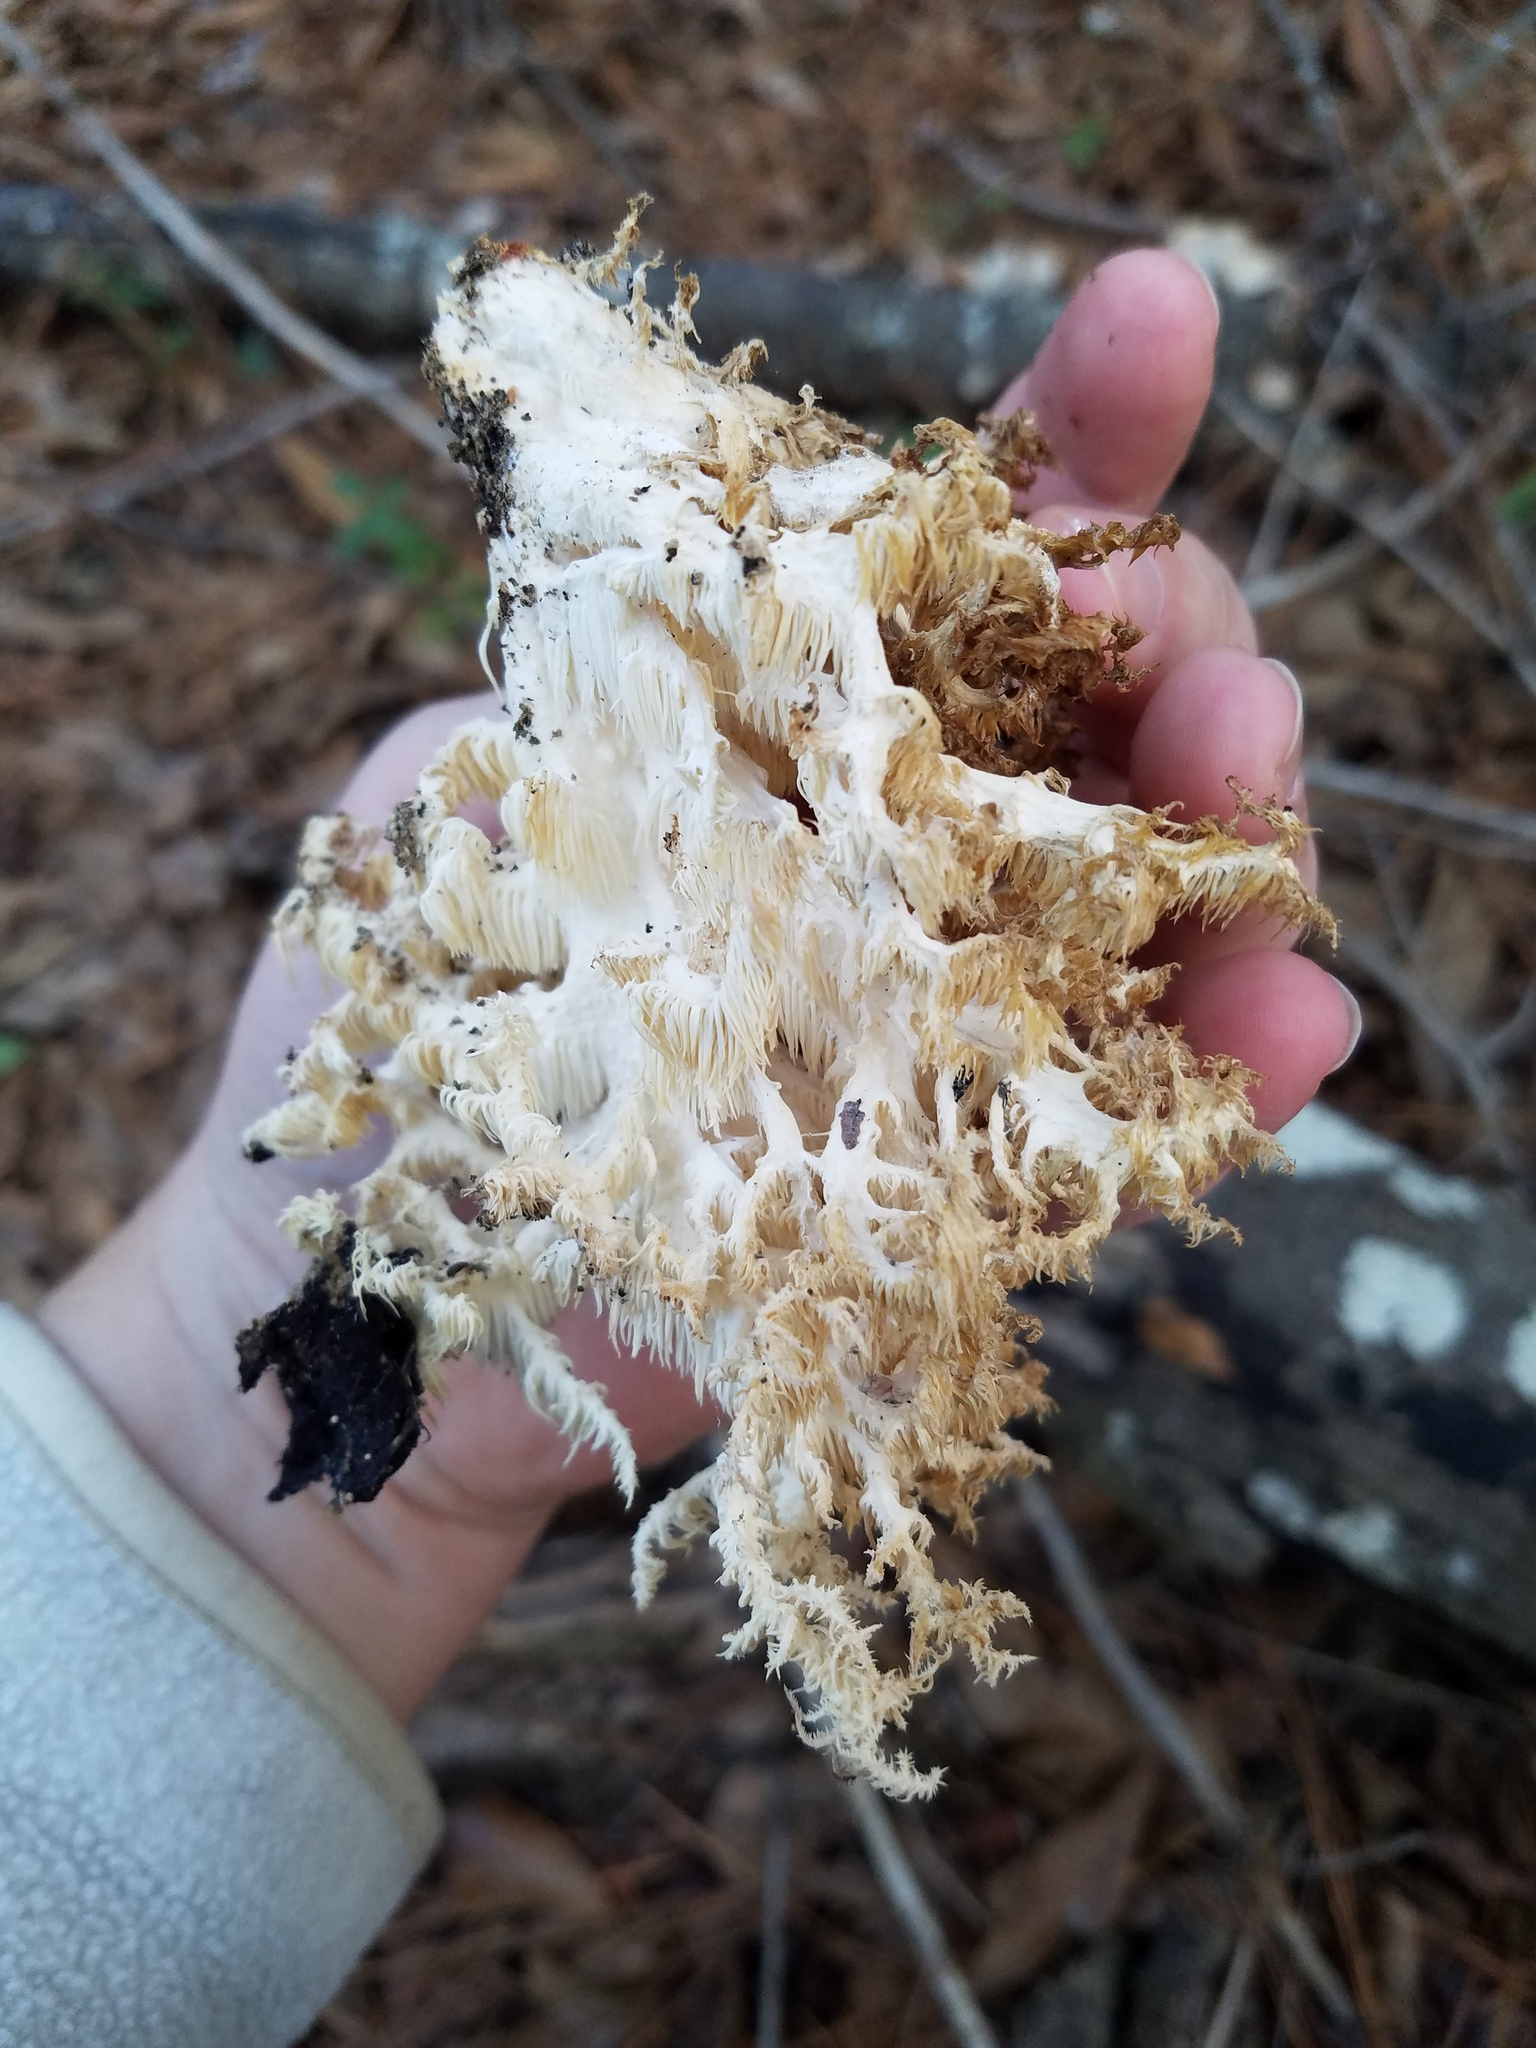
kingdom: Fungi
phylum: Basidiomycota
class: Agaricomycetes
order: Russulales
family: Hericiaceae
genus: Hericium
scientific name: Hericium coralloides
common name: Coral tooth
